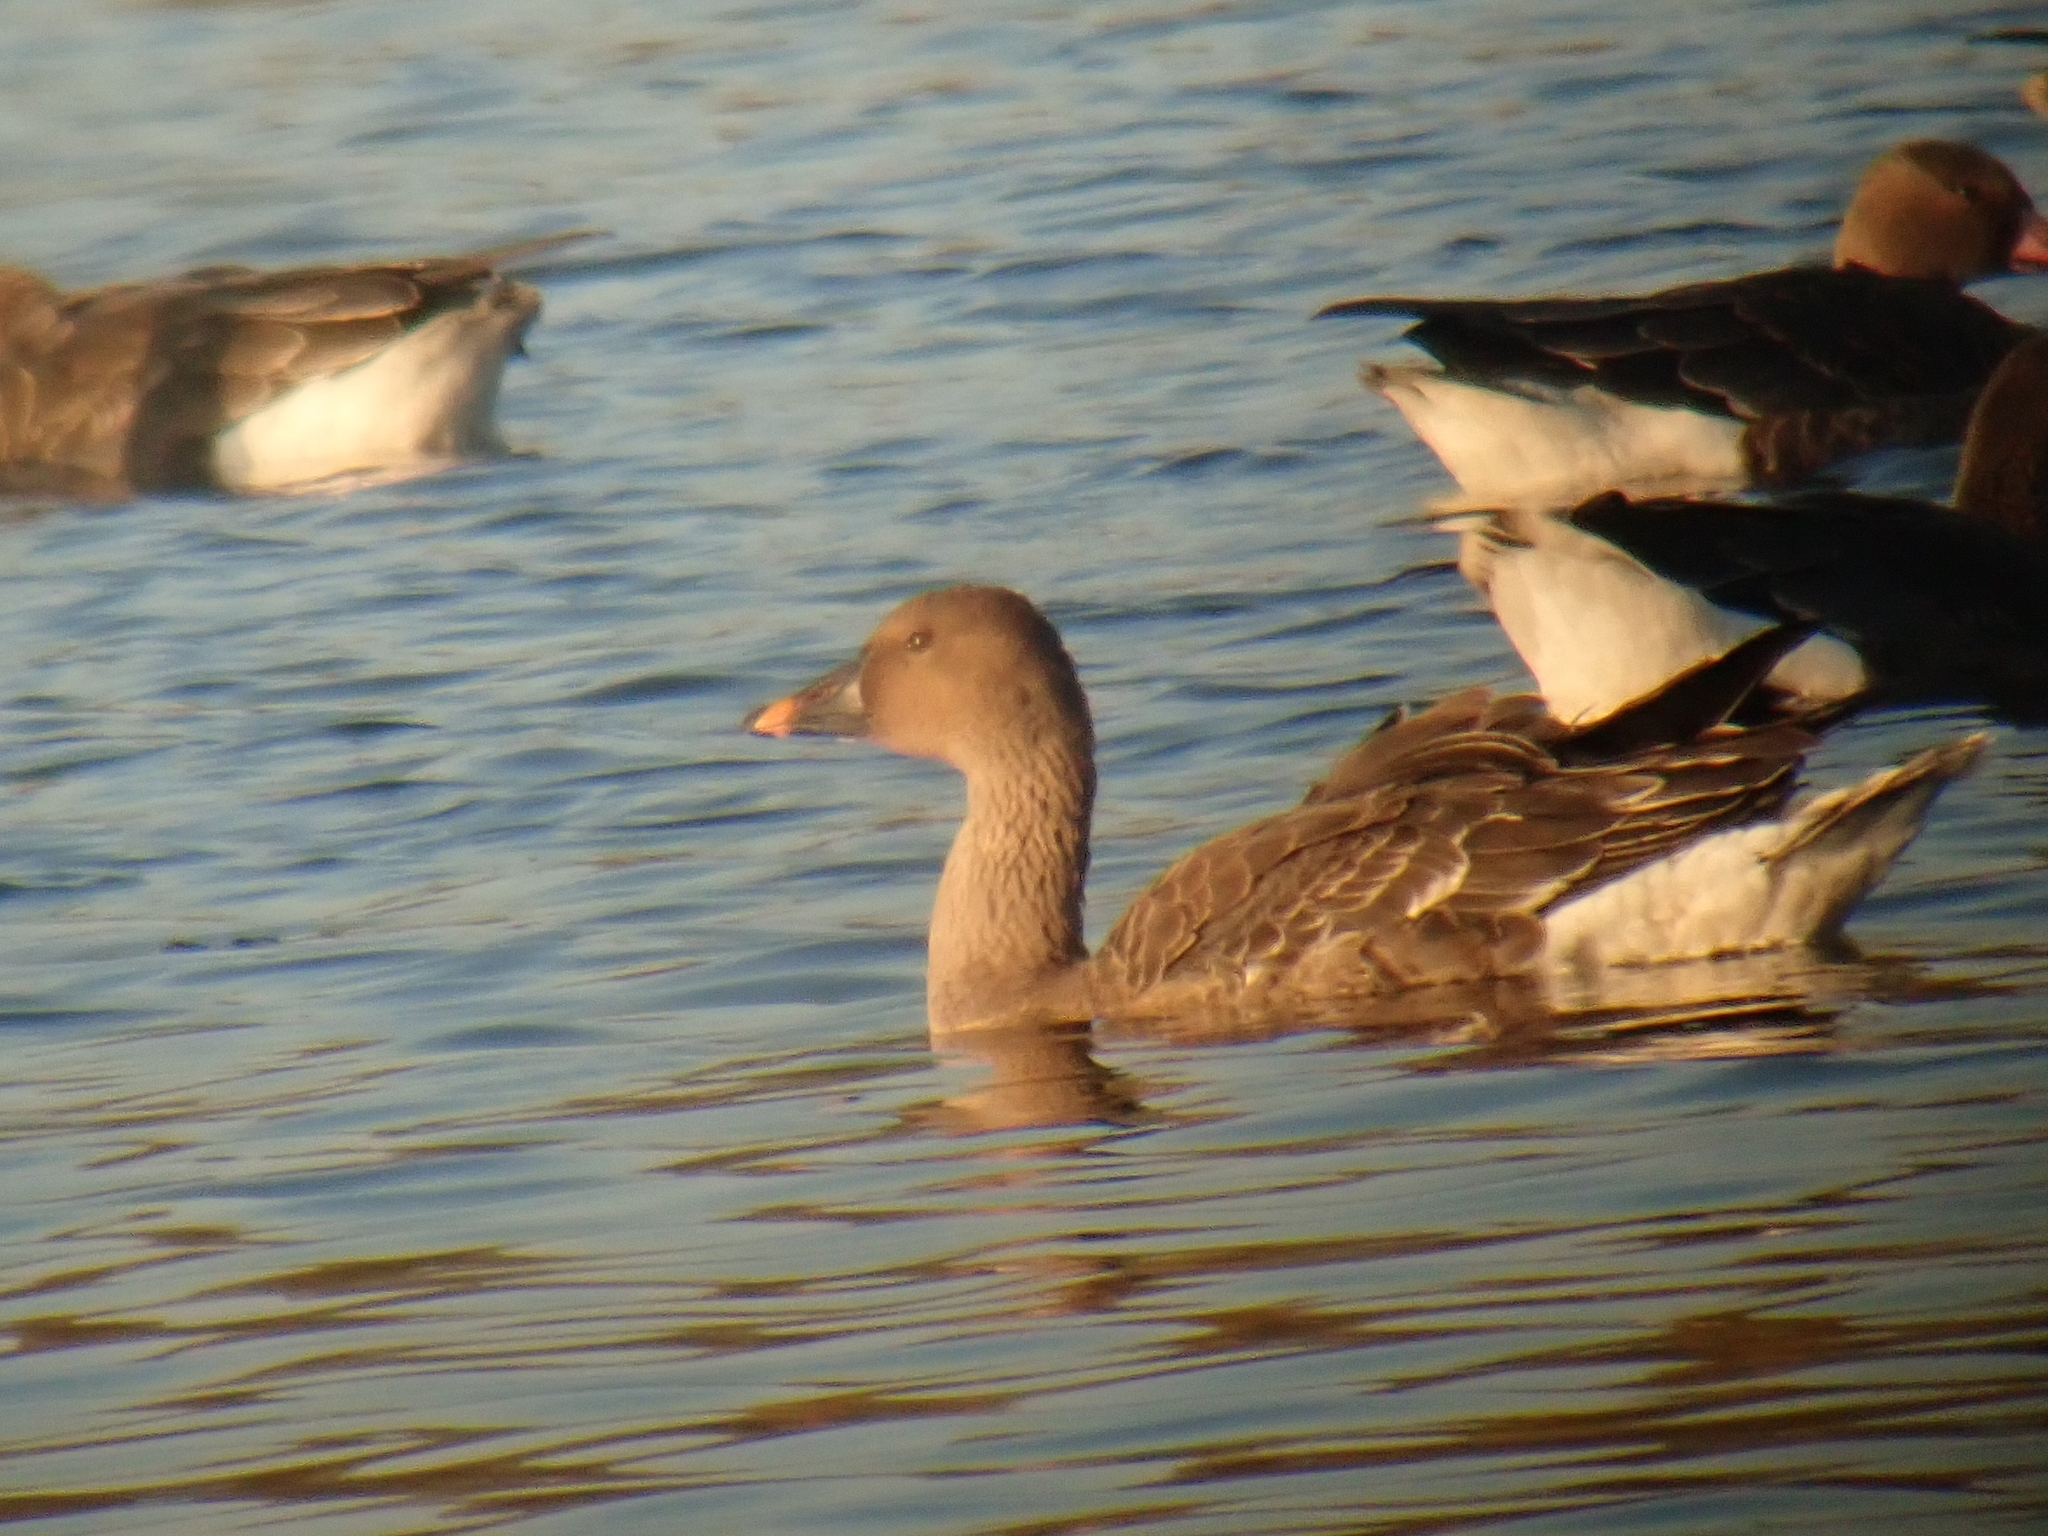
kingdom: Animalia
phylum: Chordata
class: Aves
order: Anseriformes
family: Anatidae
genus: Anser
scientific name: Anser serrirostris
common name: Tundra bean goose
